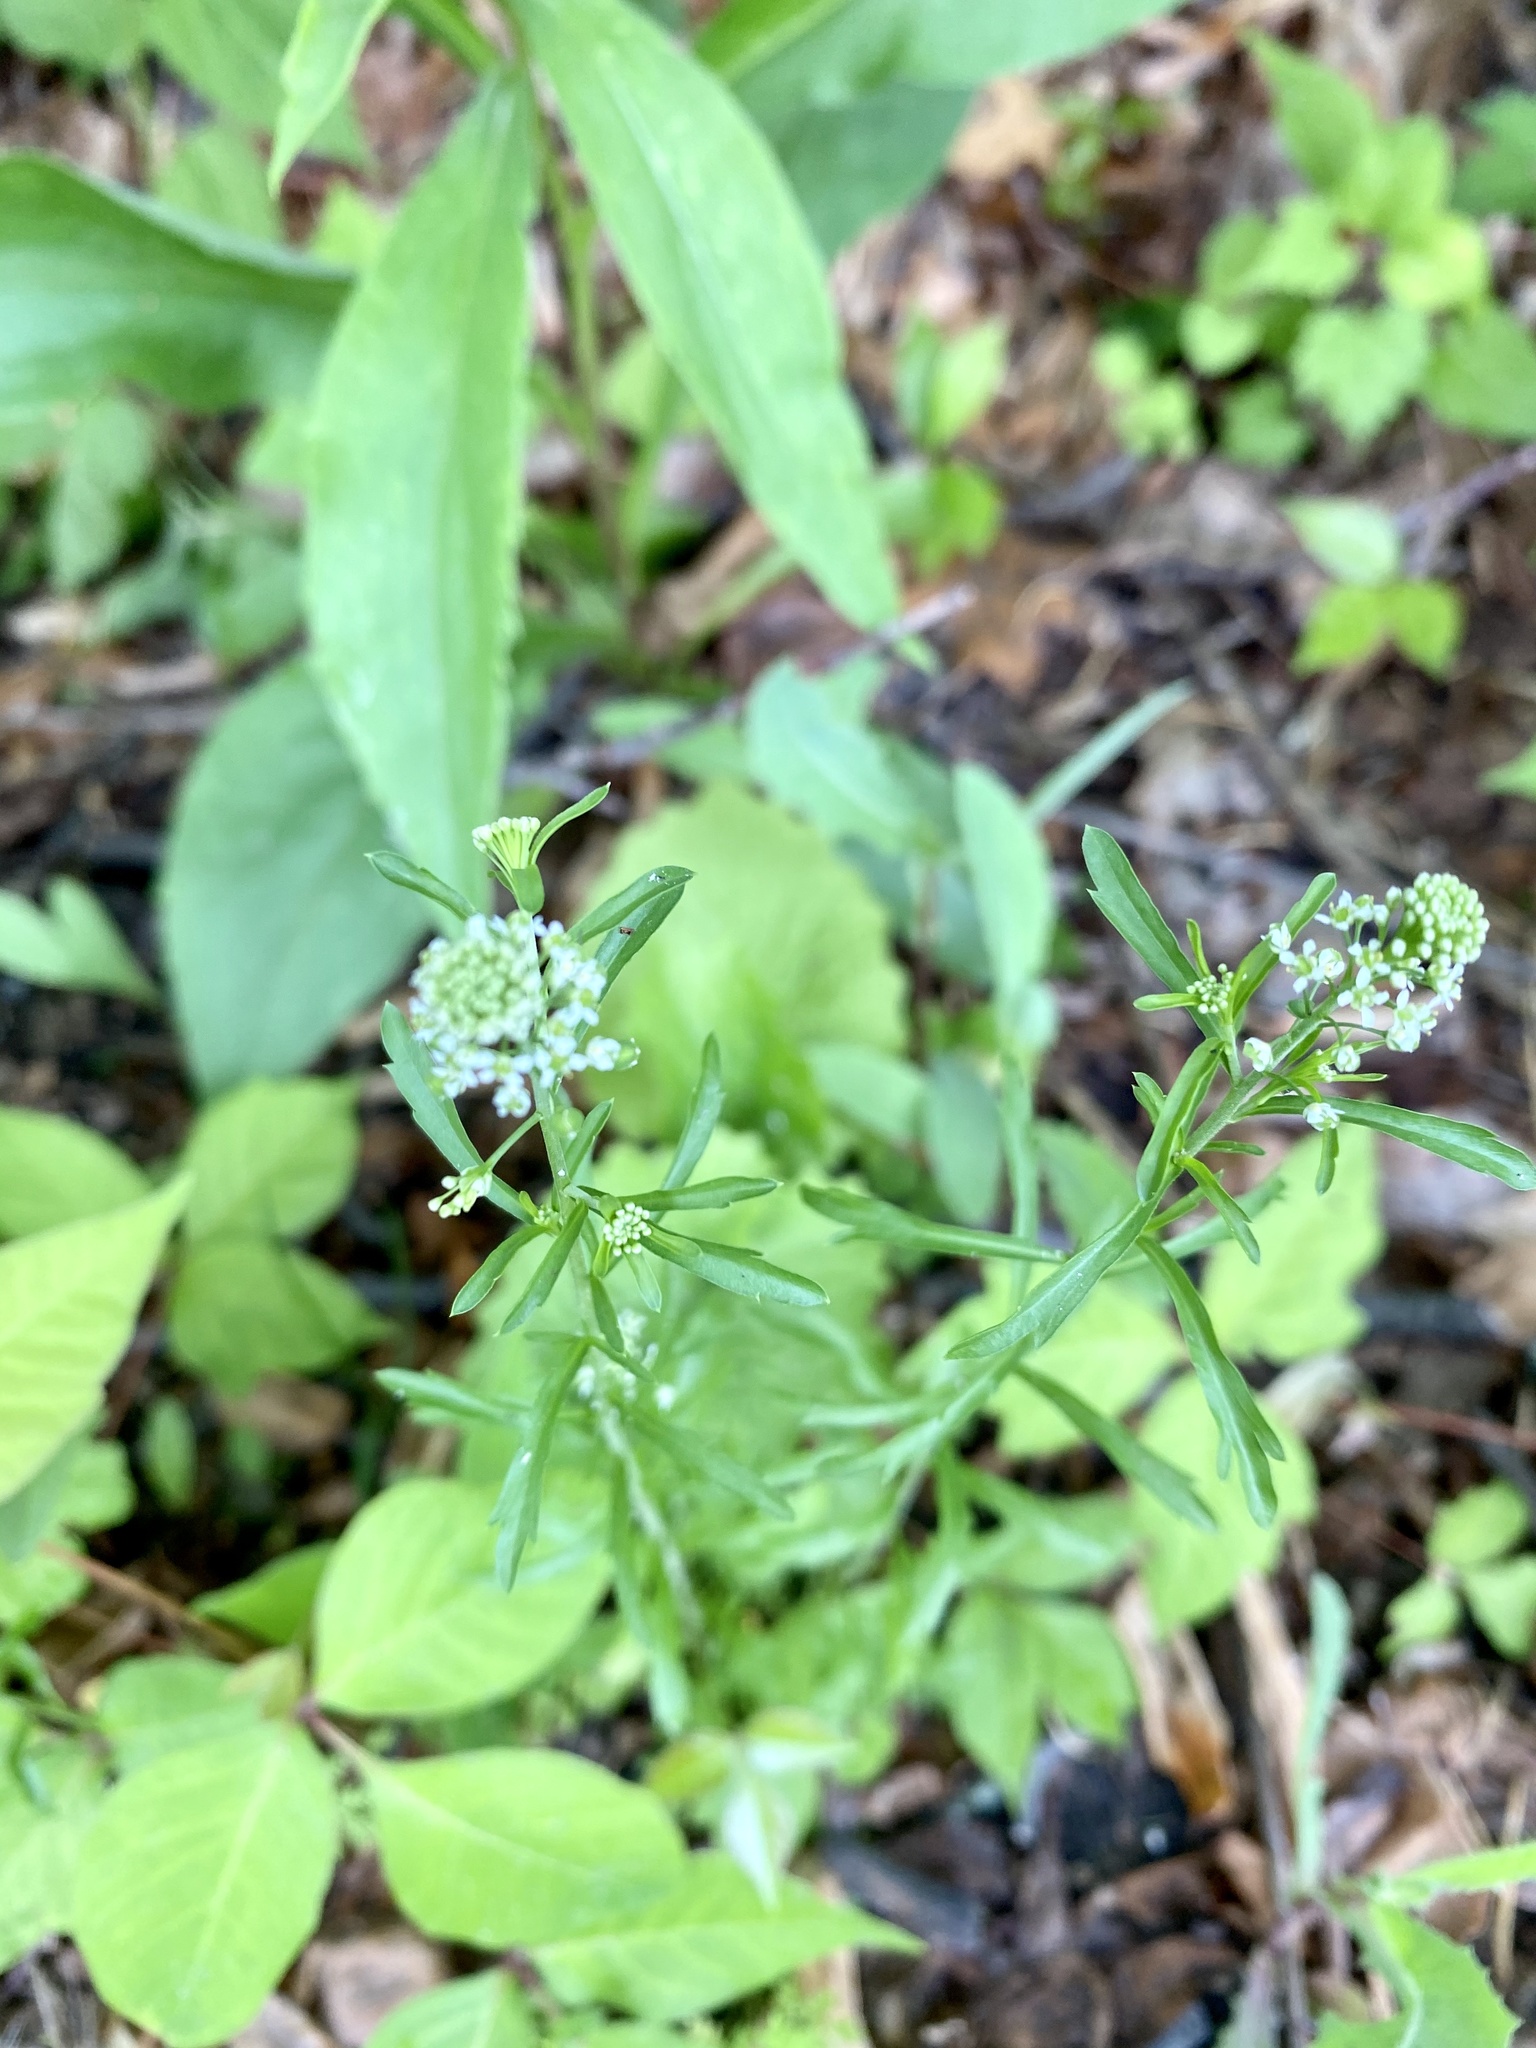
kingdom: Plantae
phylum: Tracheophyta
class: Magnoliopsida
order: Brassicales
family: Brassicaceae
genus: Lepidium
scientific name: Lepidium virginicum
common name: Least pepperwort
